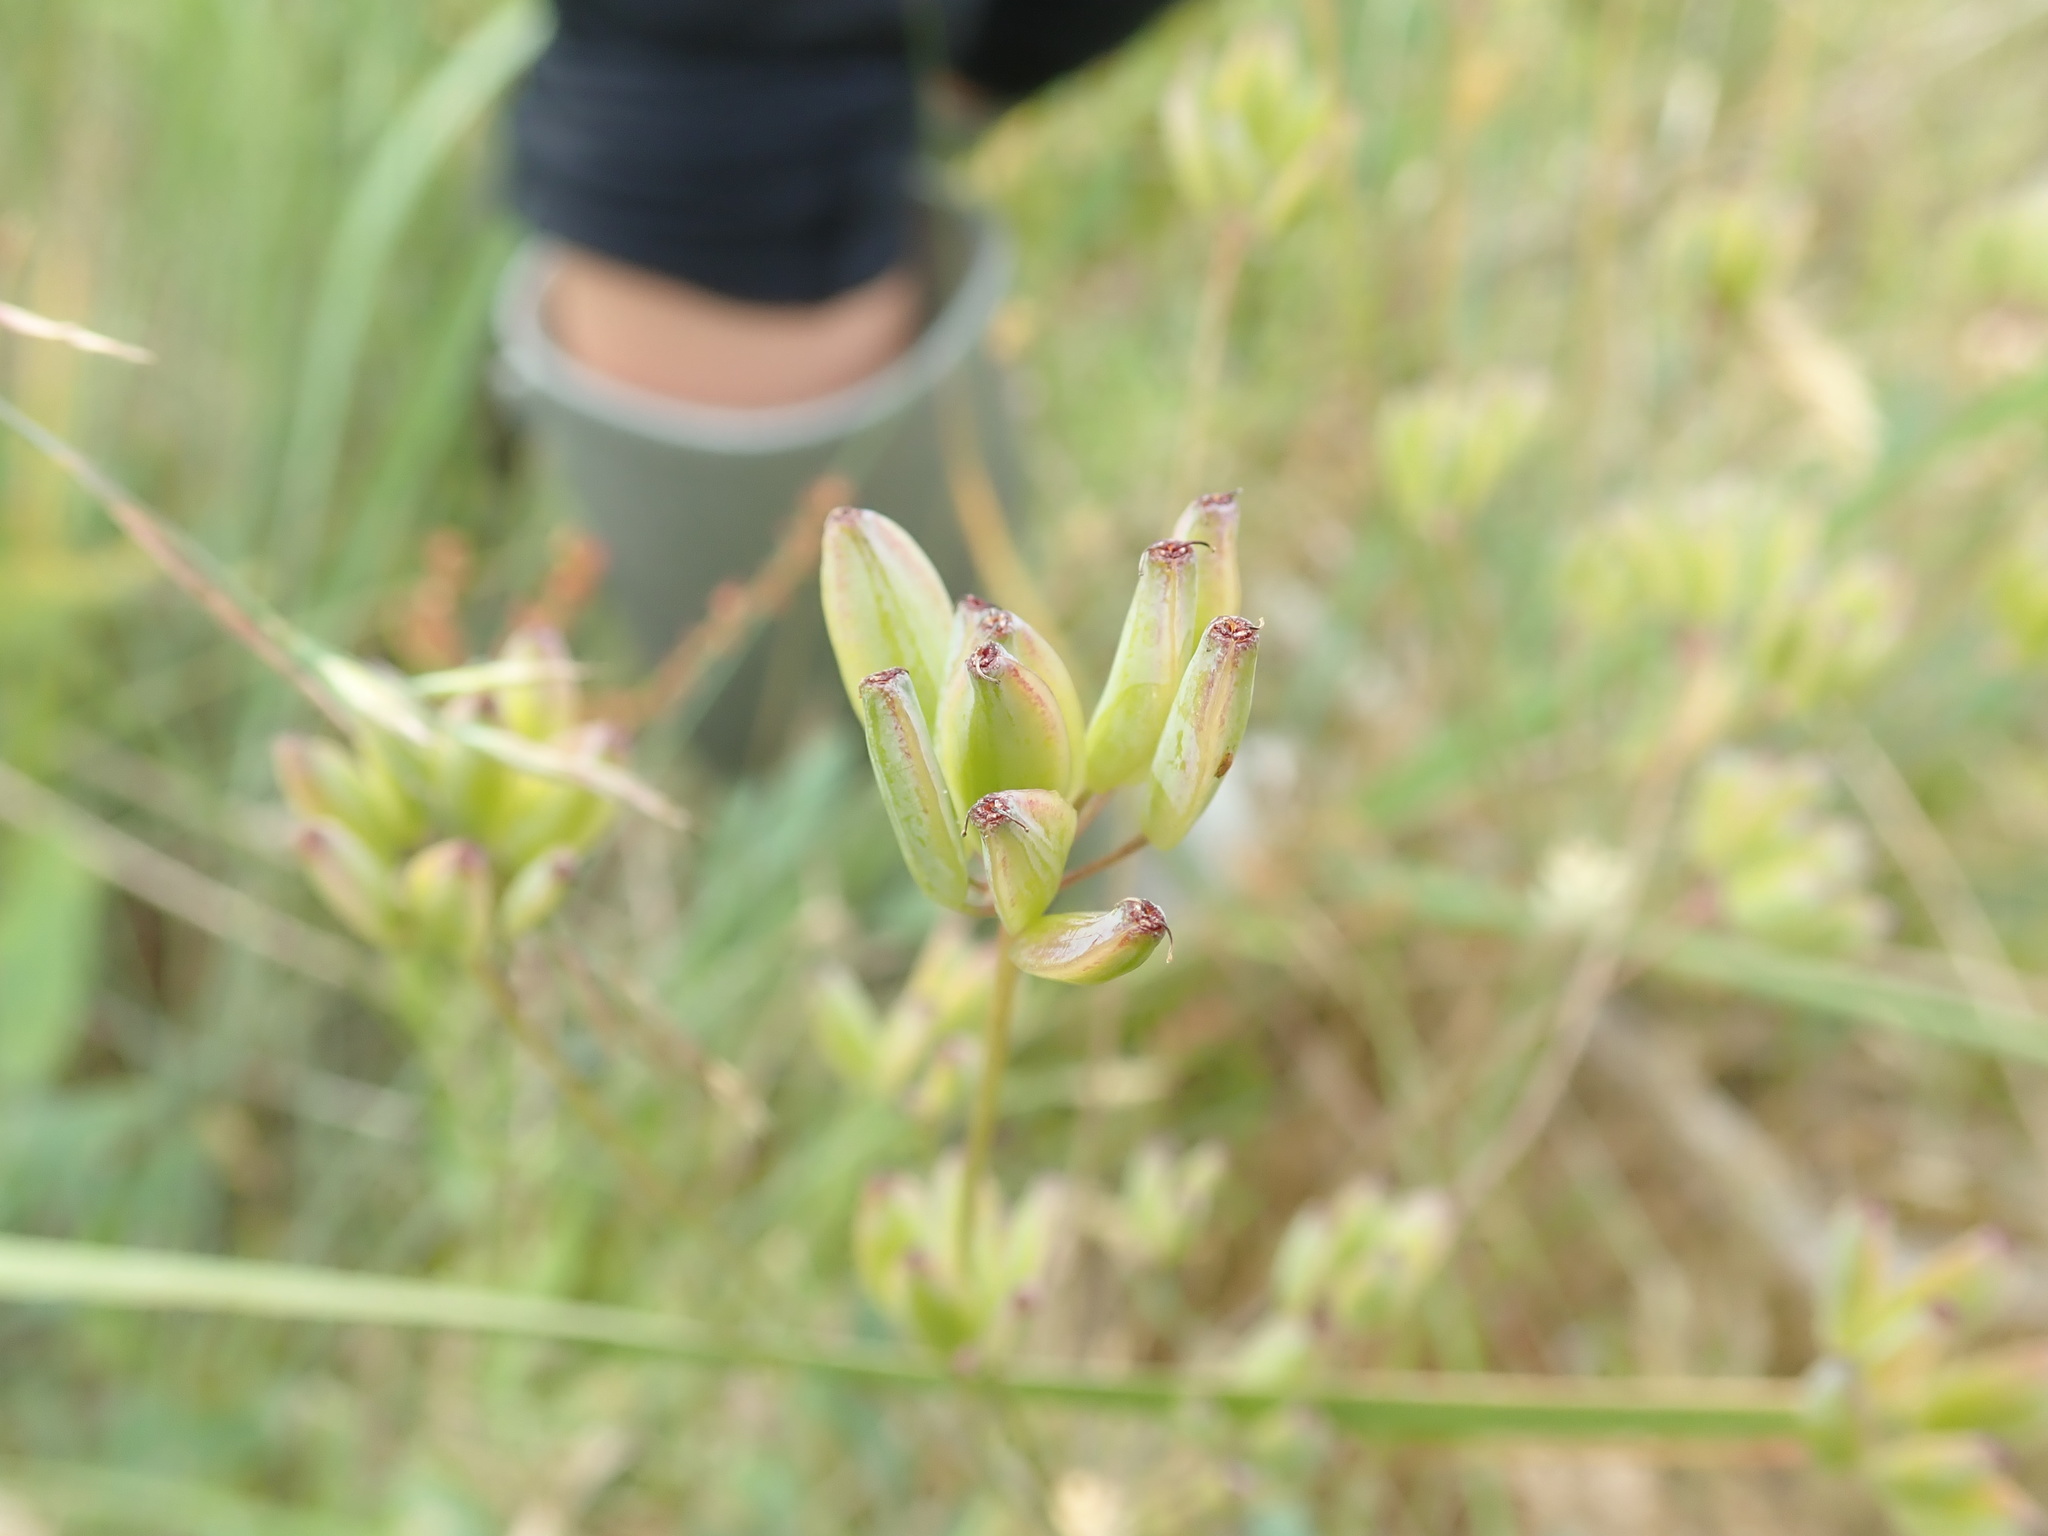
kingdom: Plantae
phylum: Tracheophyta
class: Magnoliopsida
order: Apiales
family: Apiaceae
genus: Lomatium
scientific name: Lomatium nudicaule
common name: Pestle lomatium
